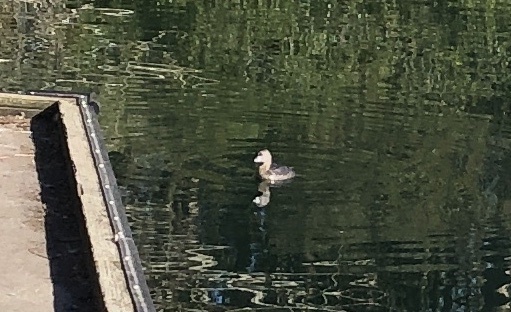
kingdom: Animalia
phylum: Chordata
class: Aves
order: Podicipediformes
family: Podicipedidae
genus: Podilymbus
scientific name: Podilymbus podiceps
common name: Pied-billed grebe
